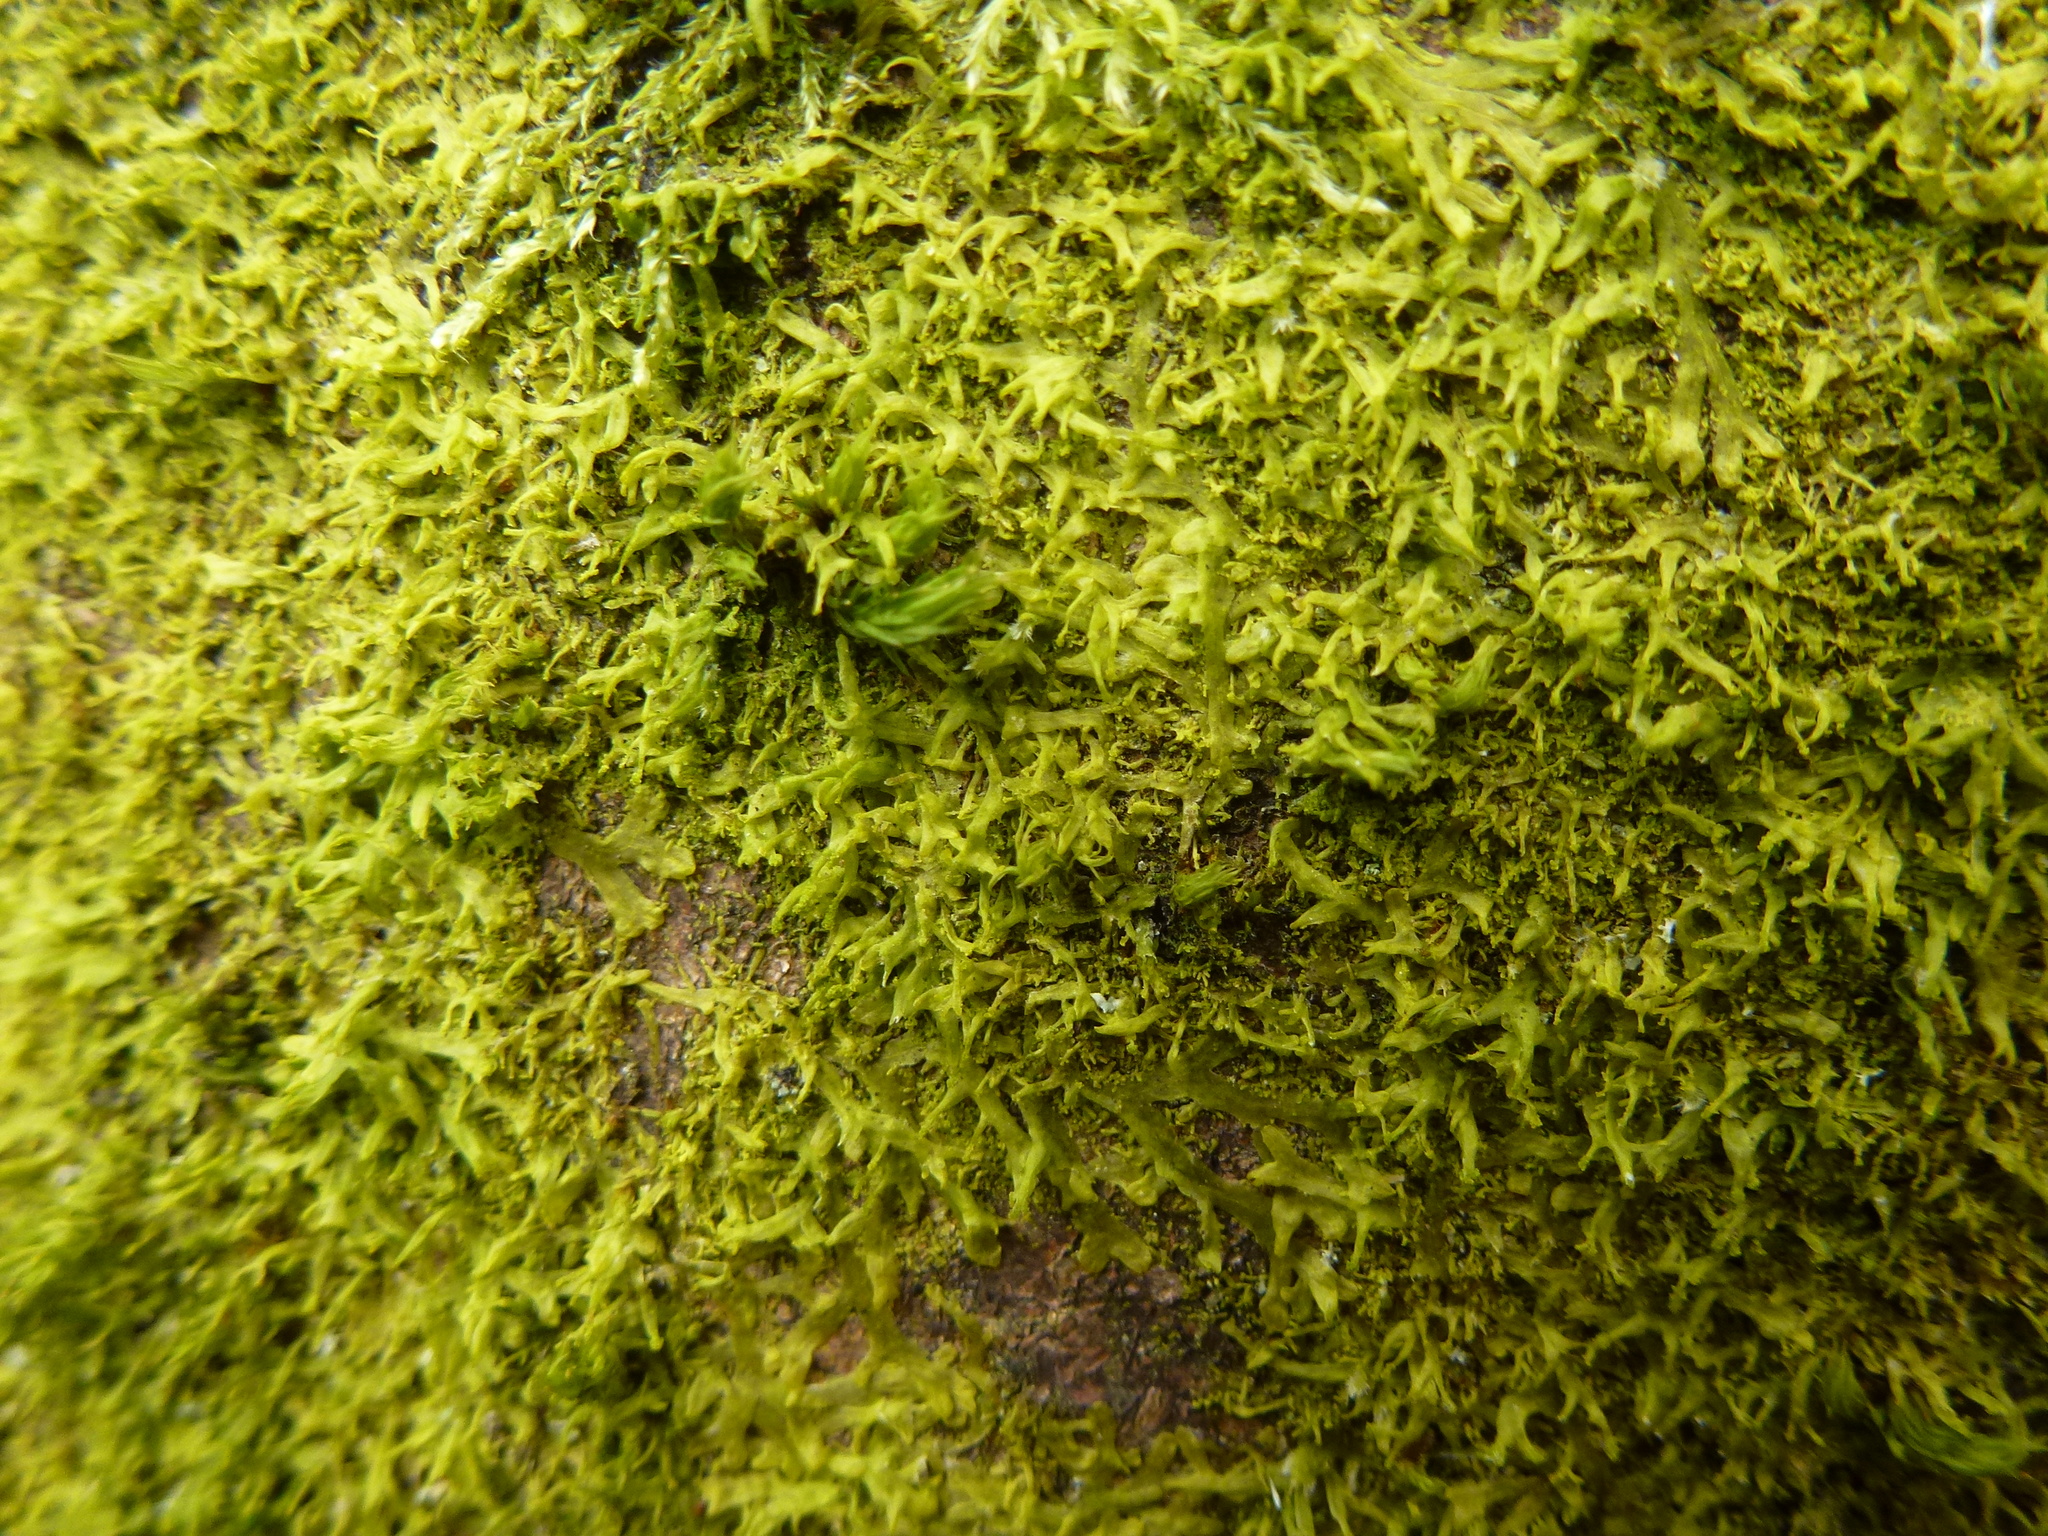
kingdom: Plantae
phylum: Marchantiophyta
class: Jungermanniopsida
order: Metzgeriales
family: Metzgeriaceae
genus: Metzgeria
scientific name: Metzgeria violacea
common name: Blueish veilwort
